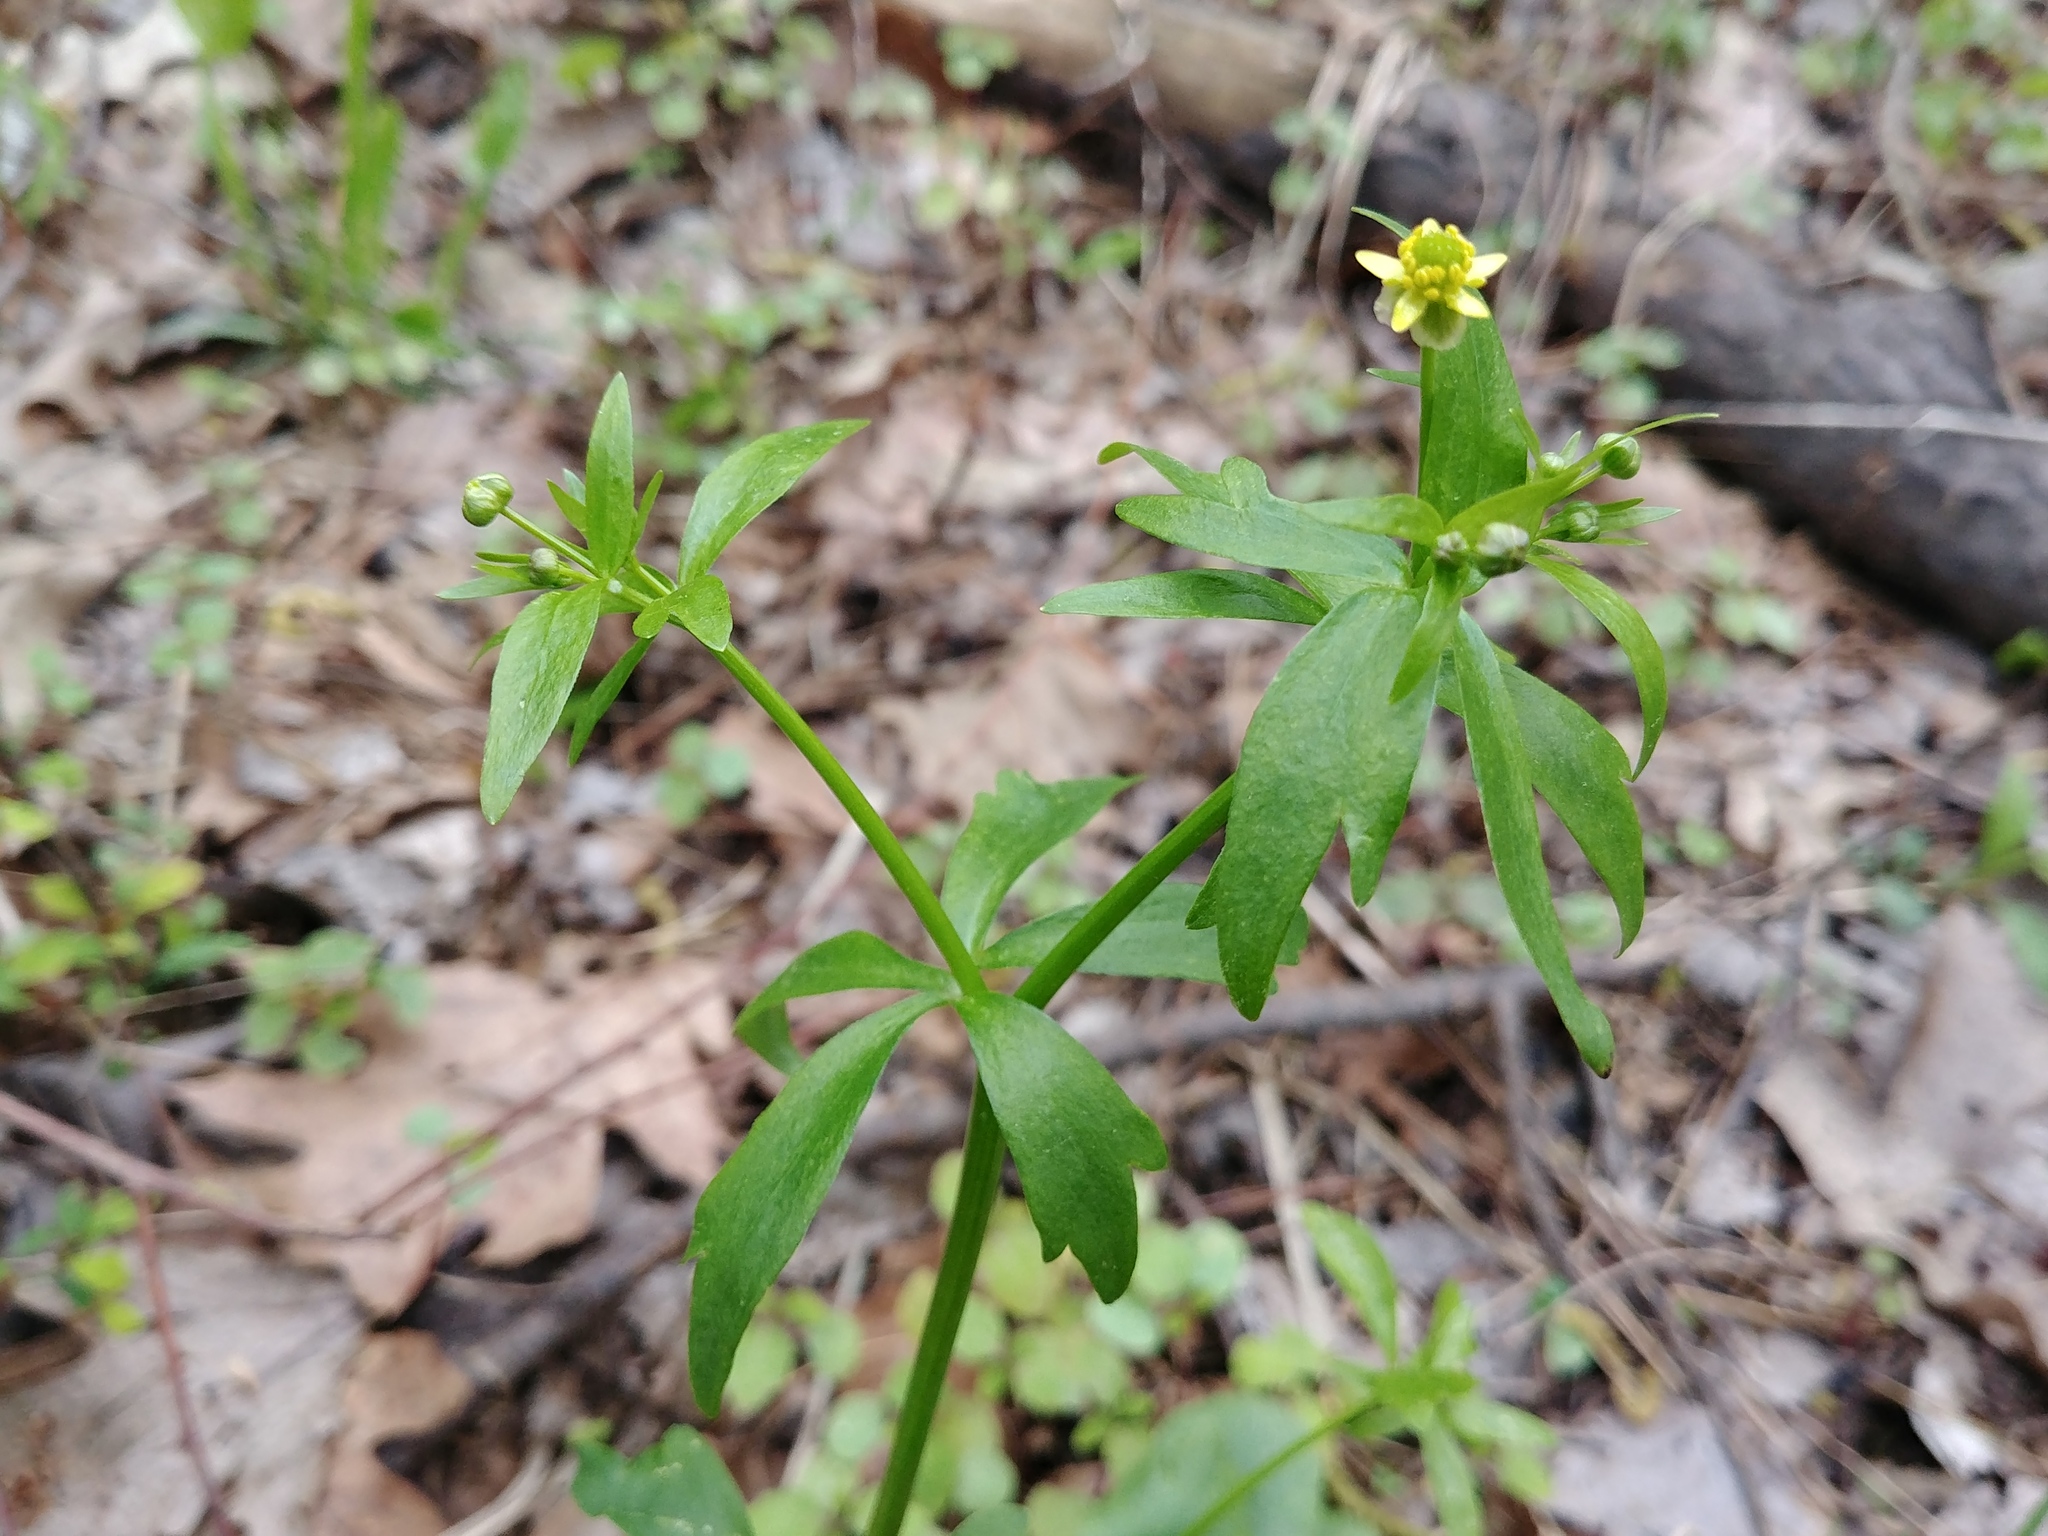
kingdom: Plantae
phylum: Tracheophyta
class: Magnoliopsida
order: Ranunculales
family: Ranunculaceae
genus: Ranunculus
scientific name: Ranunculus abortivus
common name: Early wood buttercup
